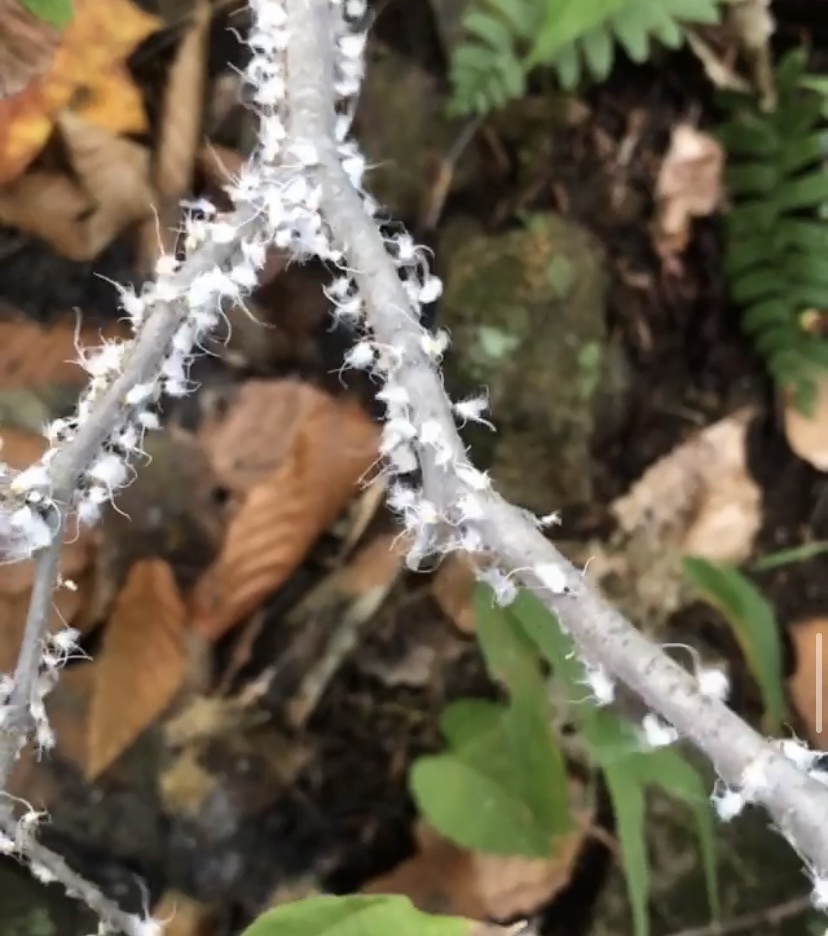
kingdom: Animalia
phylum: Arthropoda
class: Insecta
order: Hemiptera
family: Aphididae
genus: Grylloprociphilus
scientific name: Grylloprociphilus imbricator
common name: Beech blight aphid
